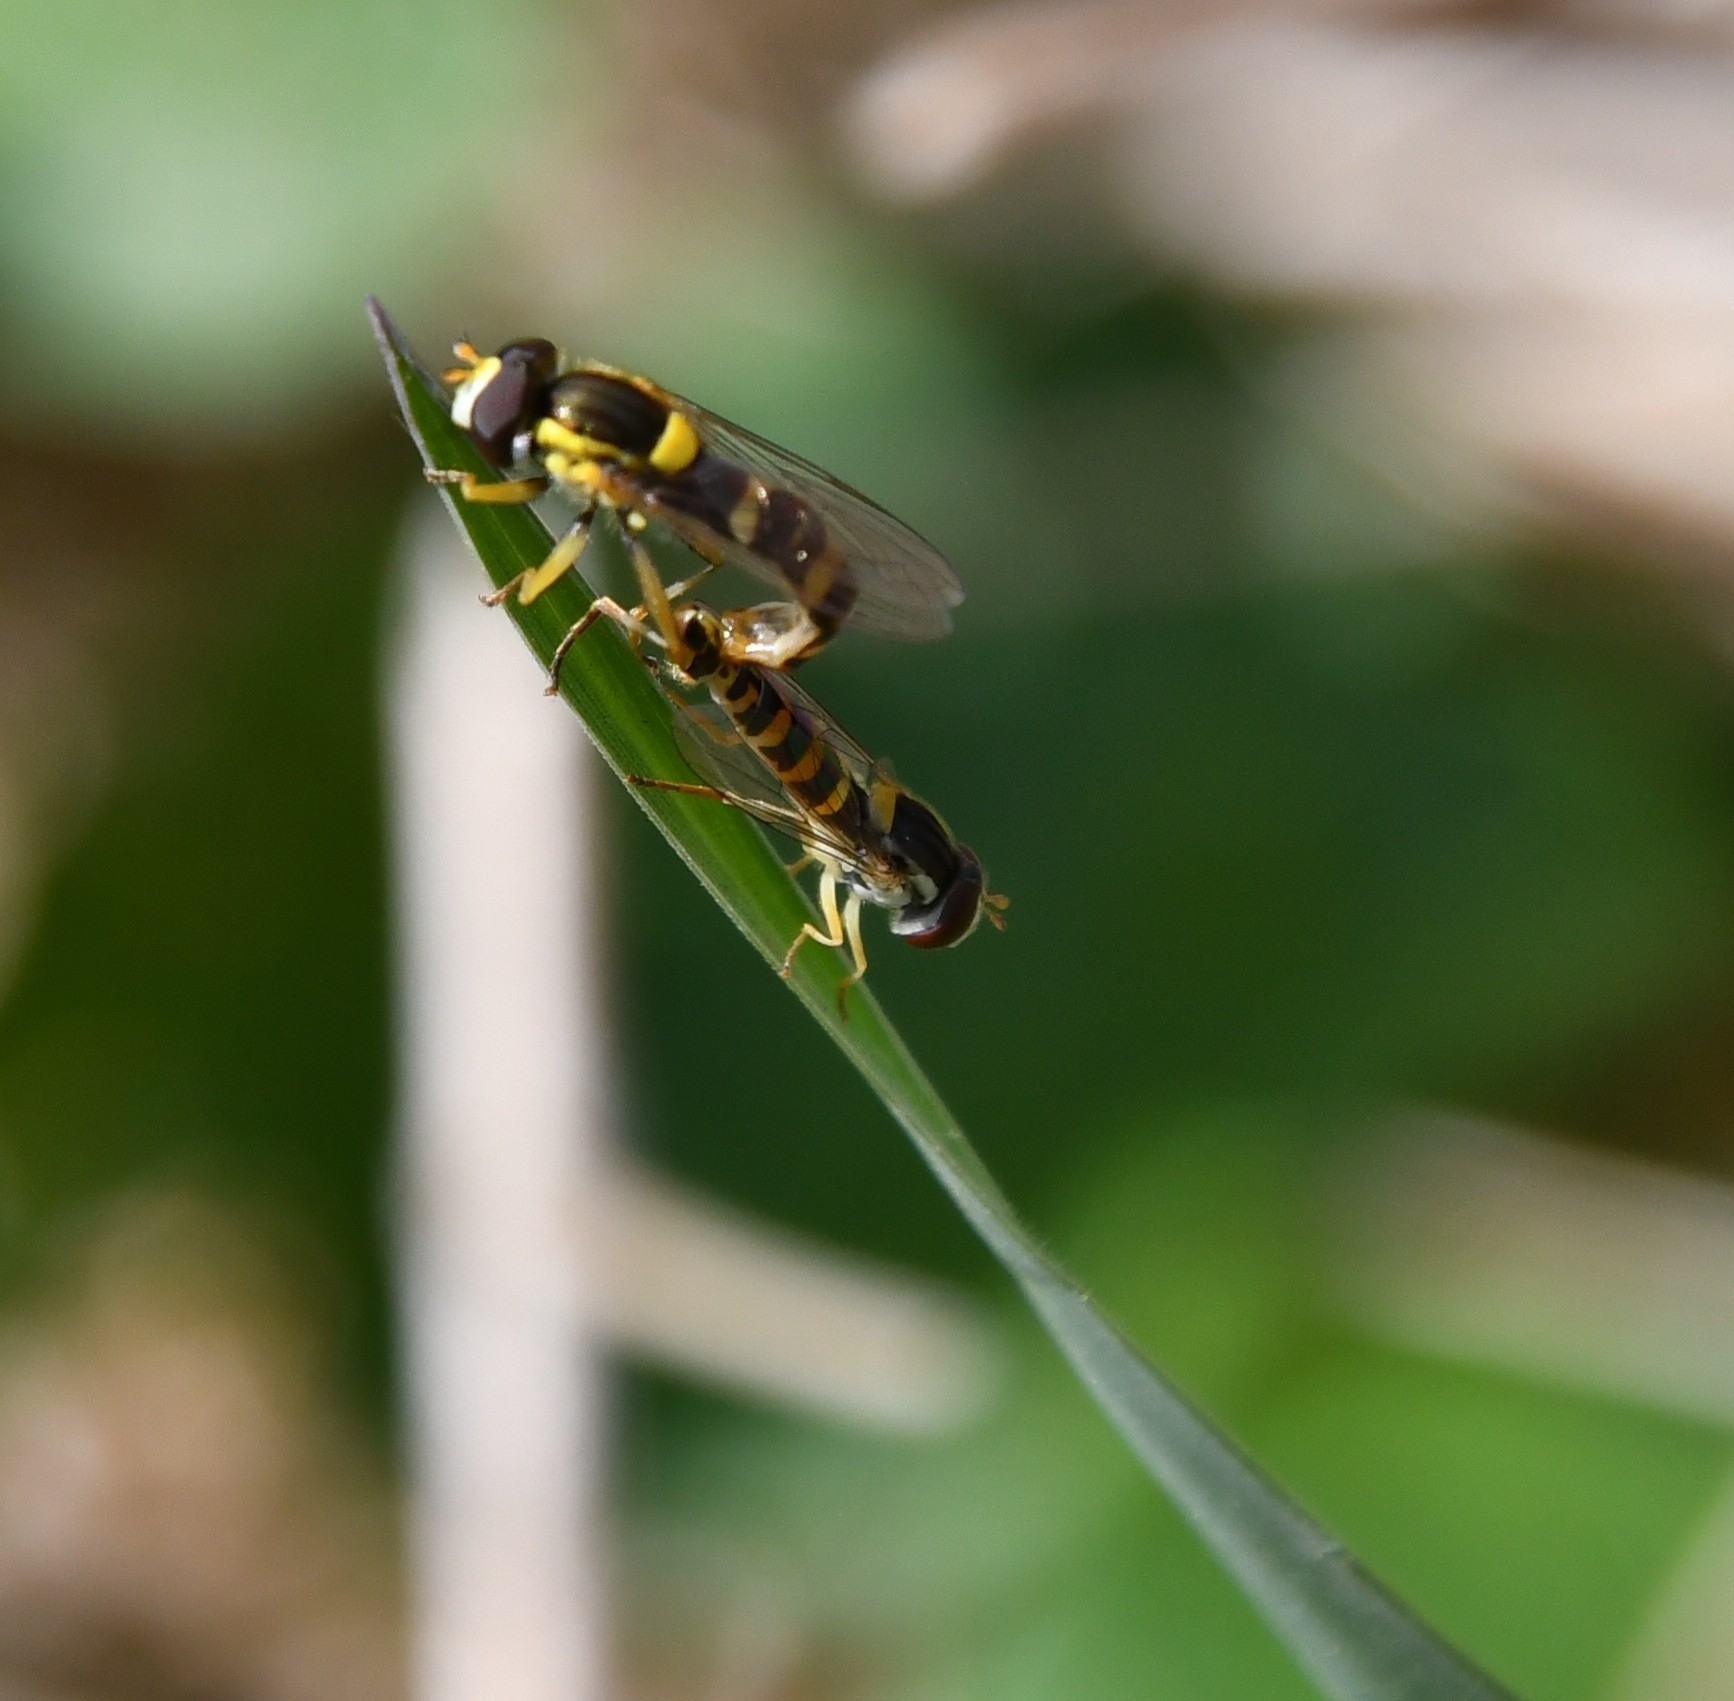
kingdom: Animalia
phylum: Arthropoda
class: Insecta
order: Diptera
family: Syrphidae
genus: Sphaerophoria
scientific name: Sphaerophoria scripta
